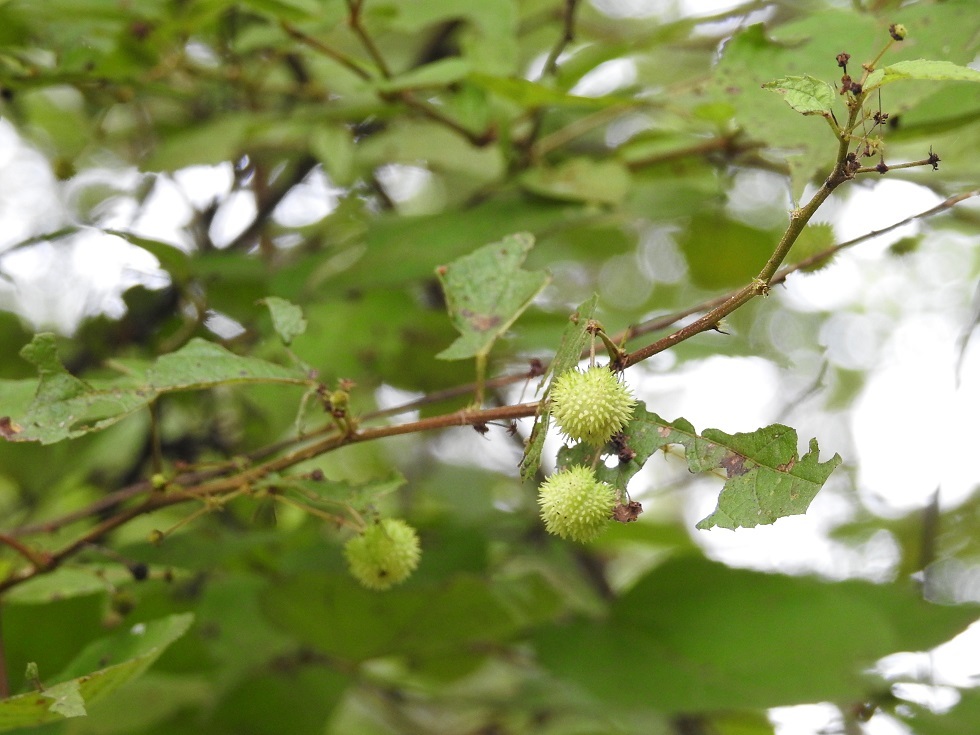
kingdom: Plantae
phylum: Tracheophyta
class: Magnoliopsida
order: Malvales
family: Malvaceae
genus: Ayenia
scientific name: Ayenia micrantha
